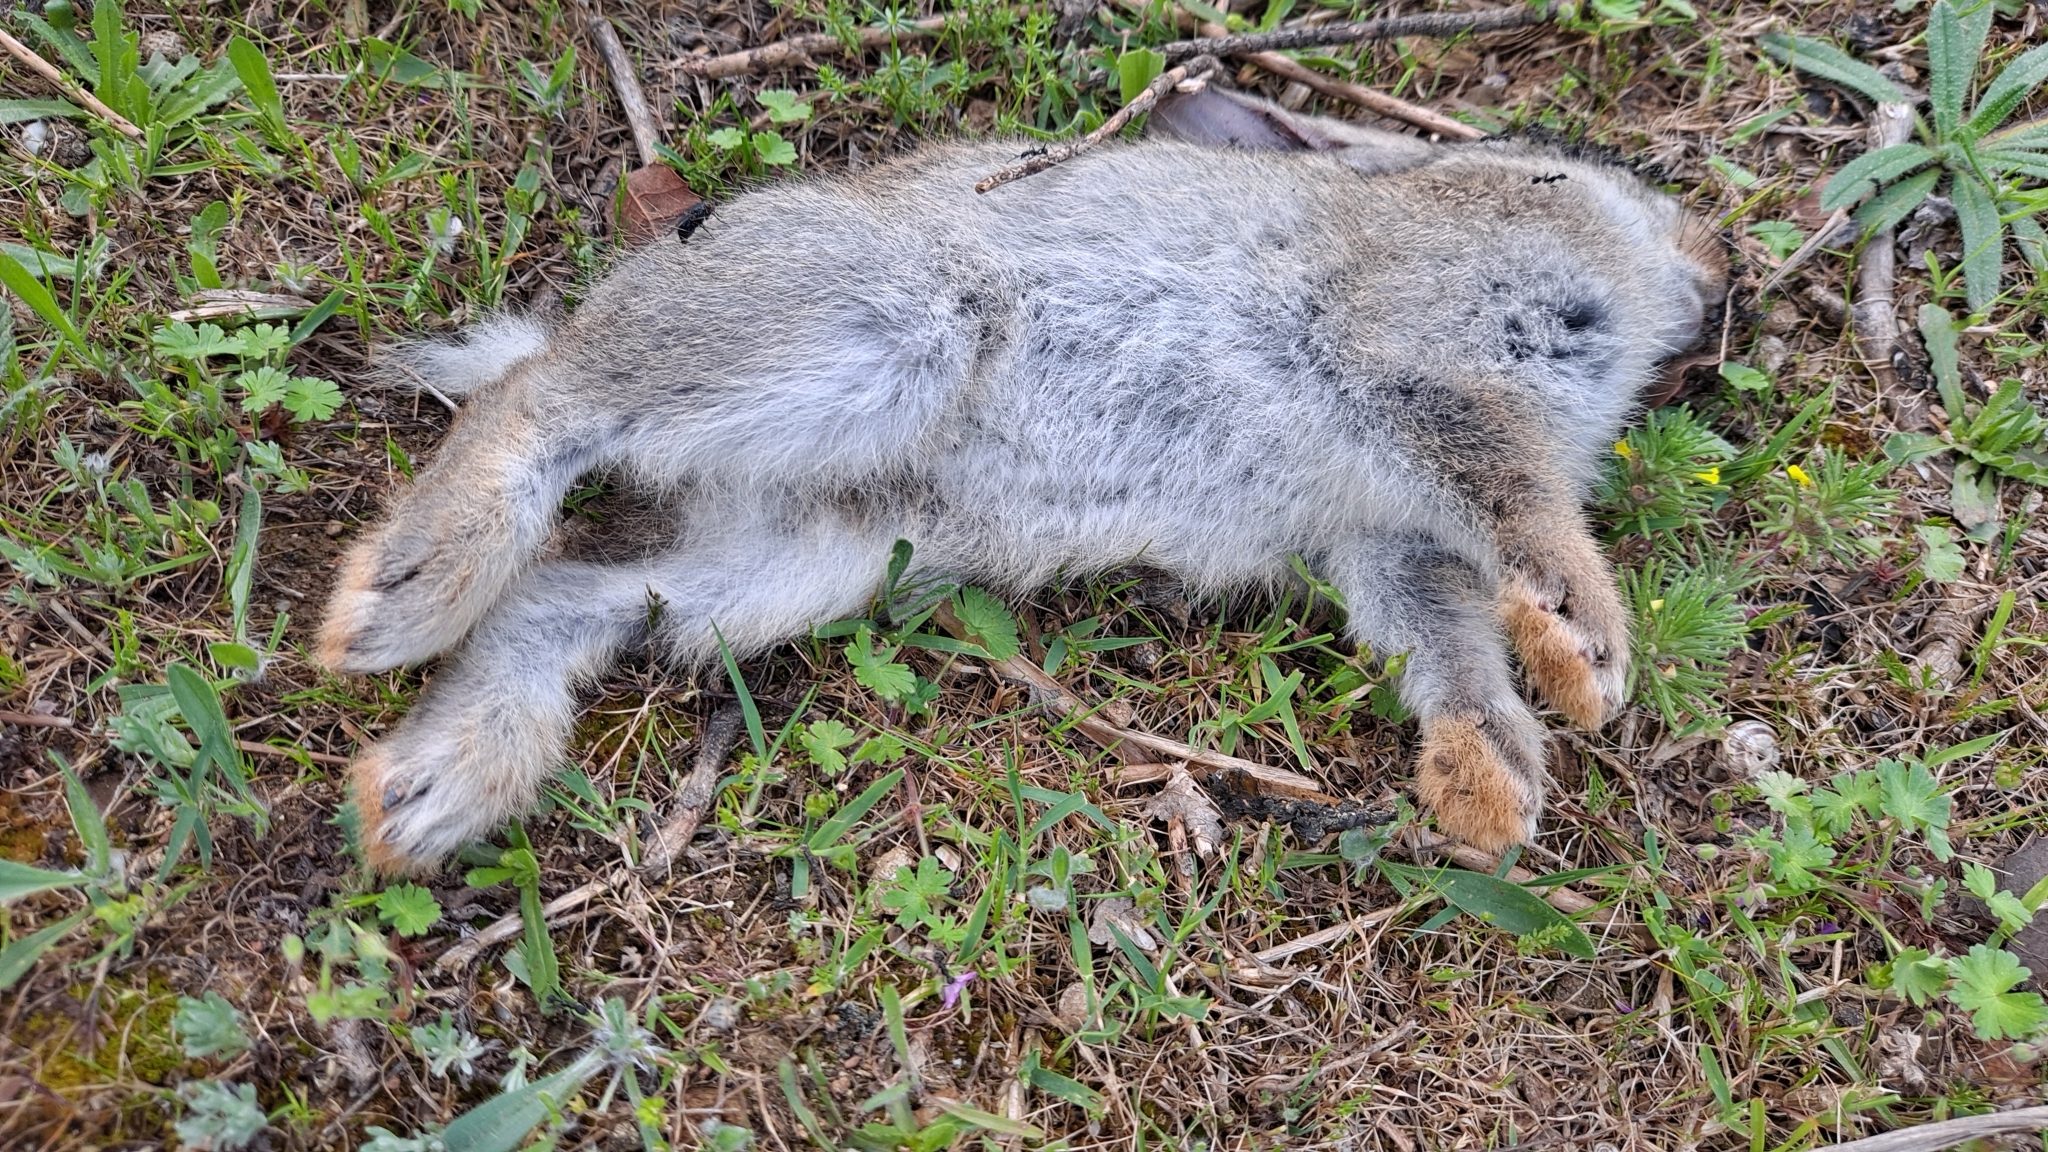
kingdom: Animalia
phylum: Chordata
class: Mammalia
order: Lagomorpha
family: Leporidae
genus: Oryctolagus
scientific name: Oryctolagus cuniculus
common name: European rabbit
